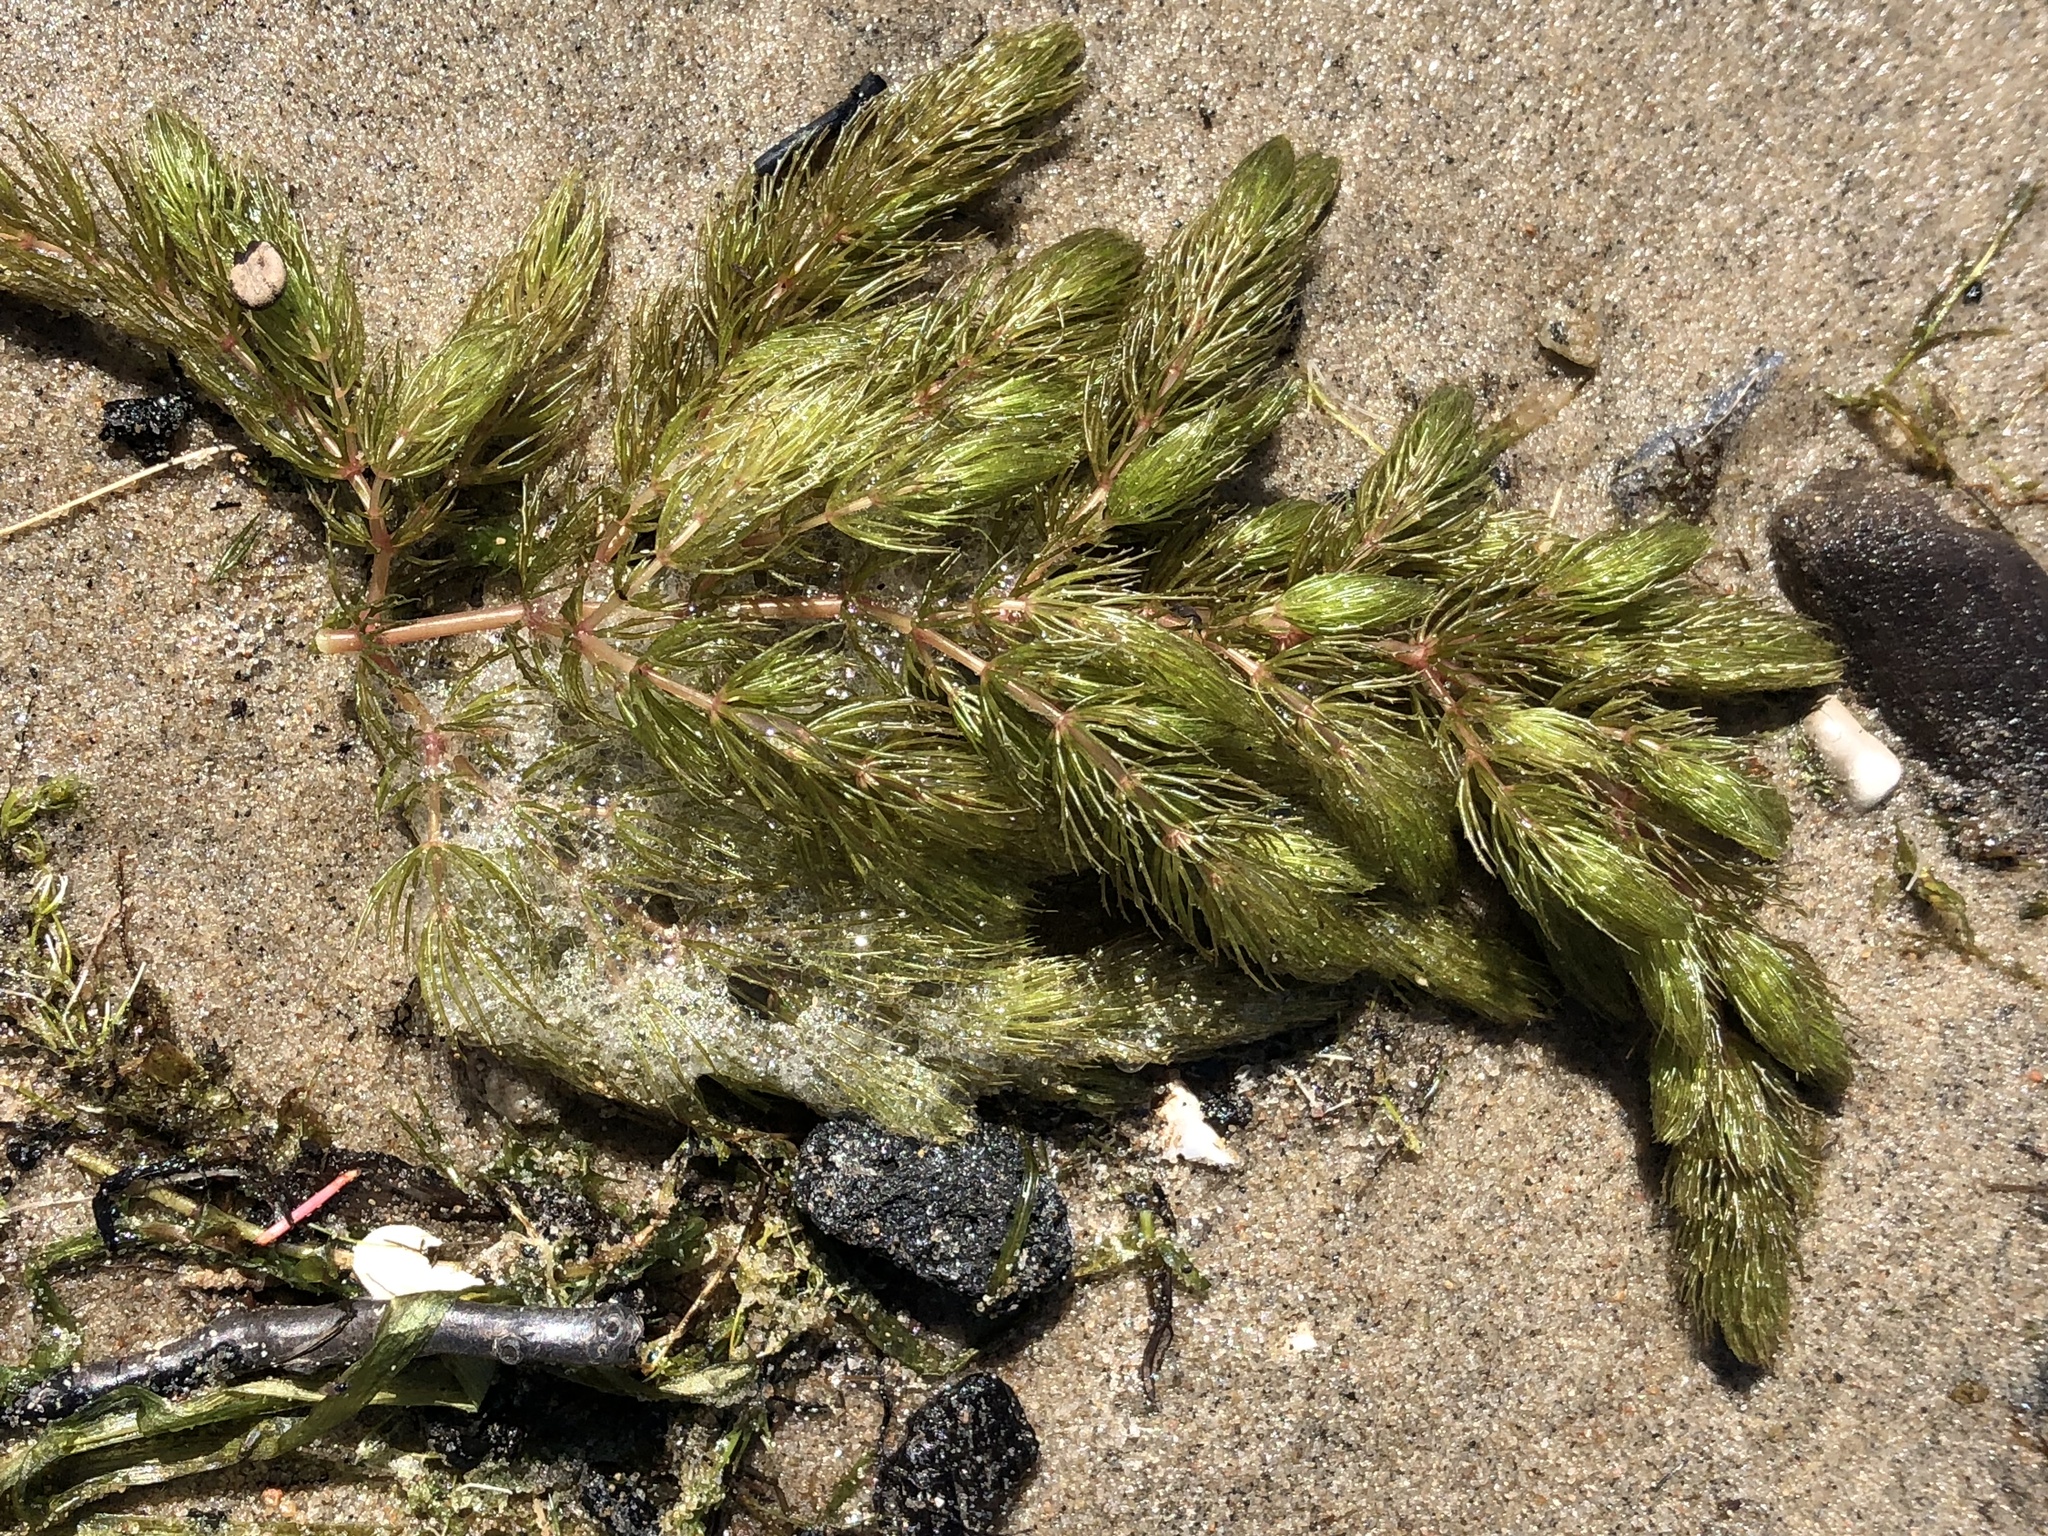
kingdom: Plantae
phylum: Tracheophyta
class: Magnoliopsida
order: Ceratophyllales
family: Ceratophyllaceae
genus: Ceratophyllum
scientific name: Ceratophyllum demersum
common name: Rigid hornwort
